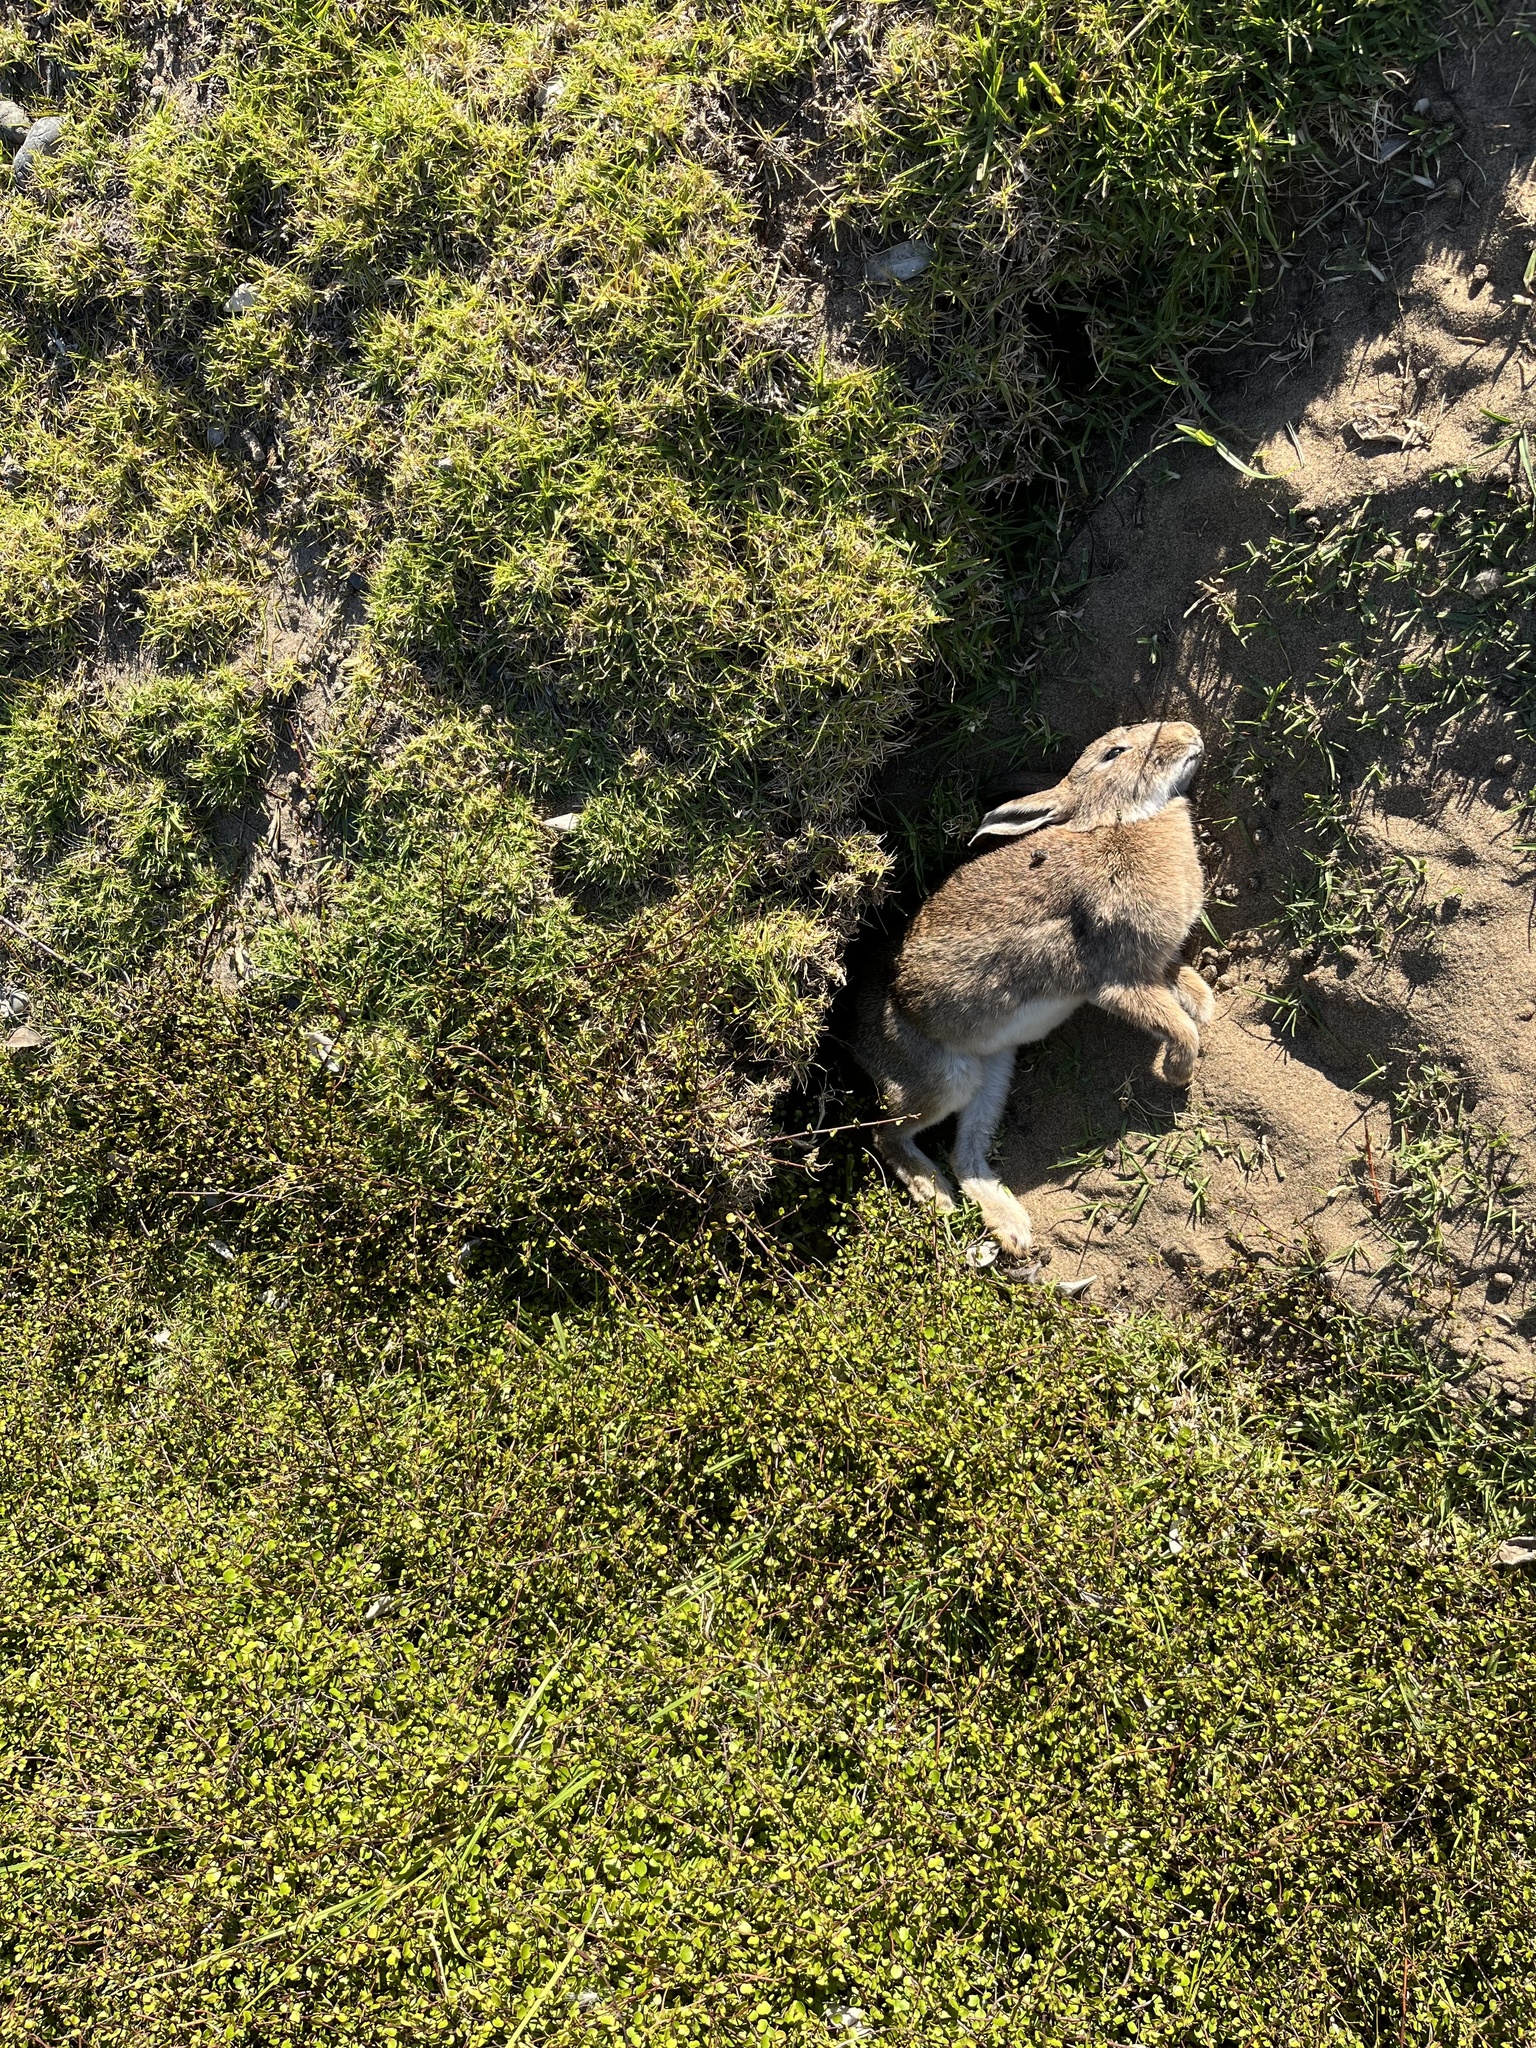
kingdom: Animalia
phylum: Chordata
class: Mammalia
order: Lagomorpha
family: Leporidae
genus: Oryctolagus
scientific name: Oryctolagus cuniculus
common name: European rabbit
